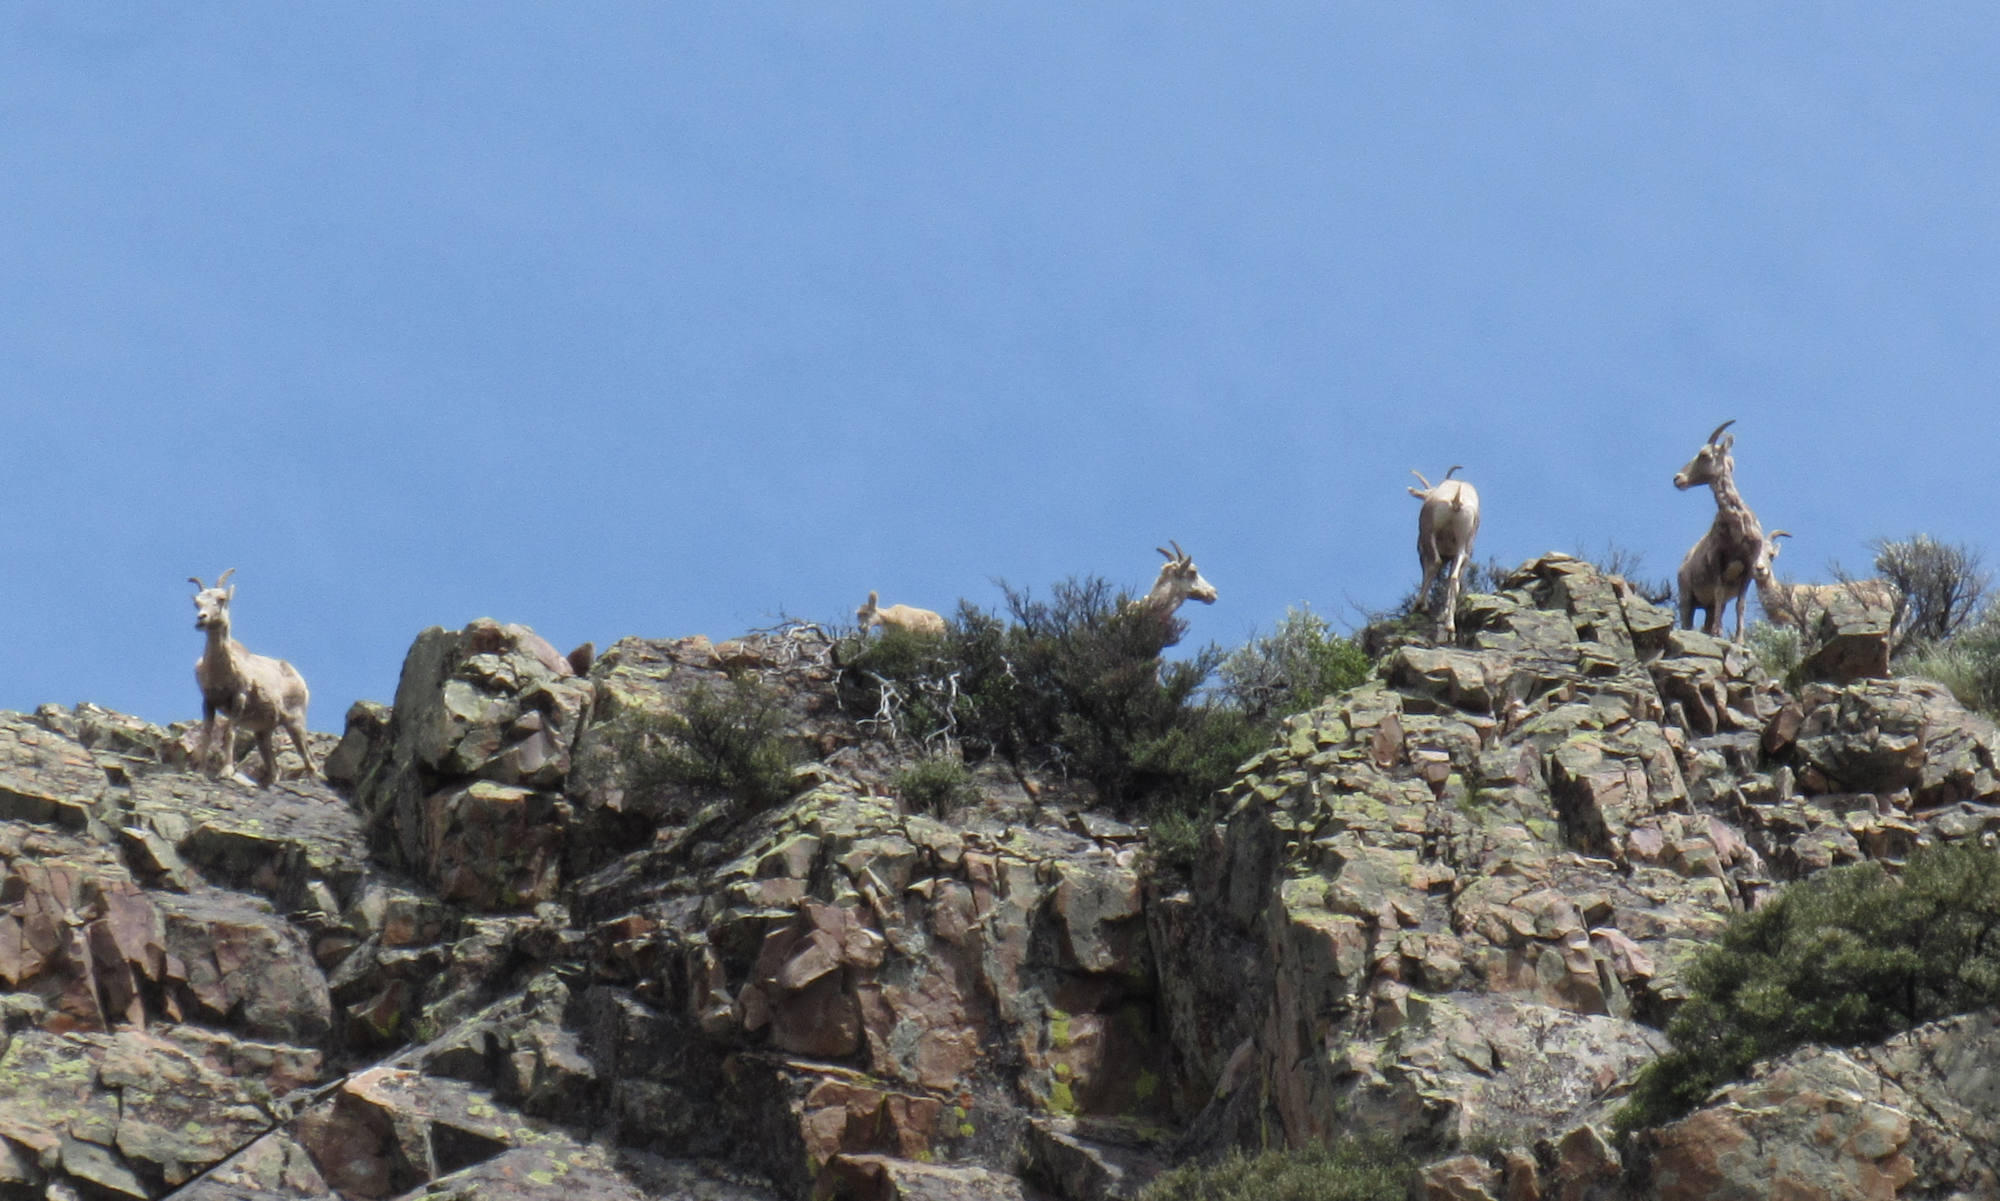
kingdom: Animalia
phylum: Chordata
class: Mammalia
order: Artiodactyla
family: Bovidae
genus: Ovis
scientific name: Ovis canadensis
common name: Bighorn sheep
